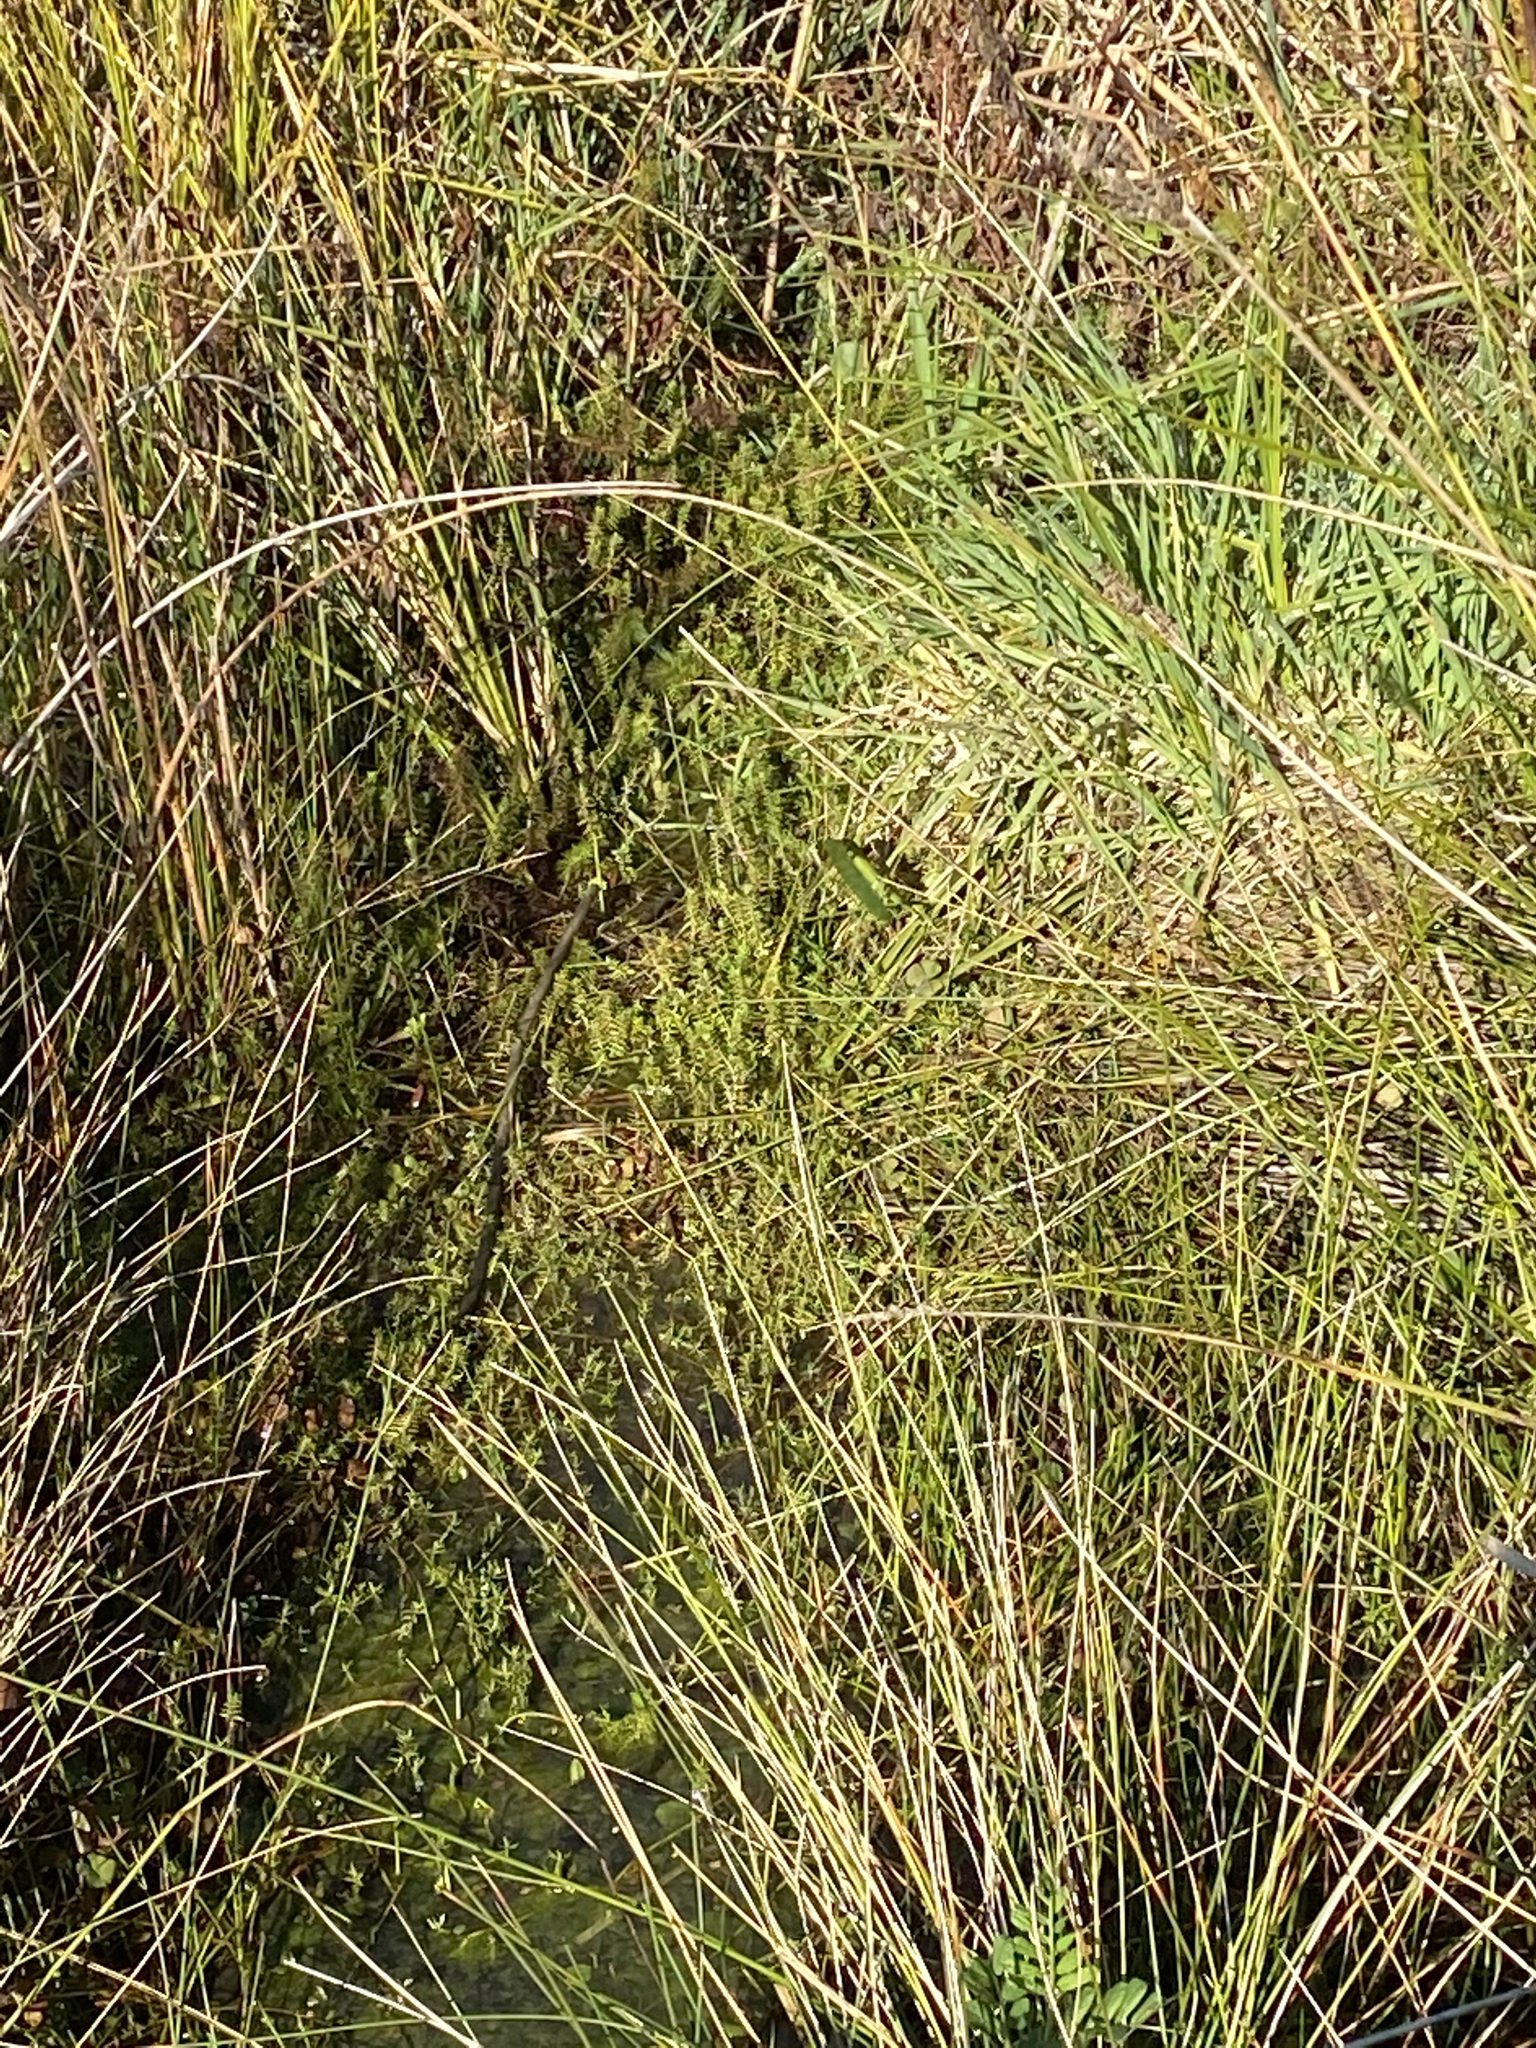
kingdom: Plantae
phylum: Tracheophyta
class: Magnoliopsida
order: Saxifragales
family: Crassulaceae
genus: Crassula
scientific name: Crassula helmsii
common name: New zealand pigmyweed
